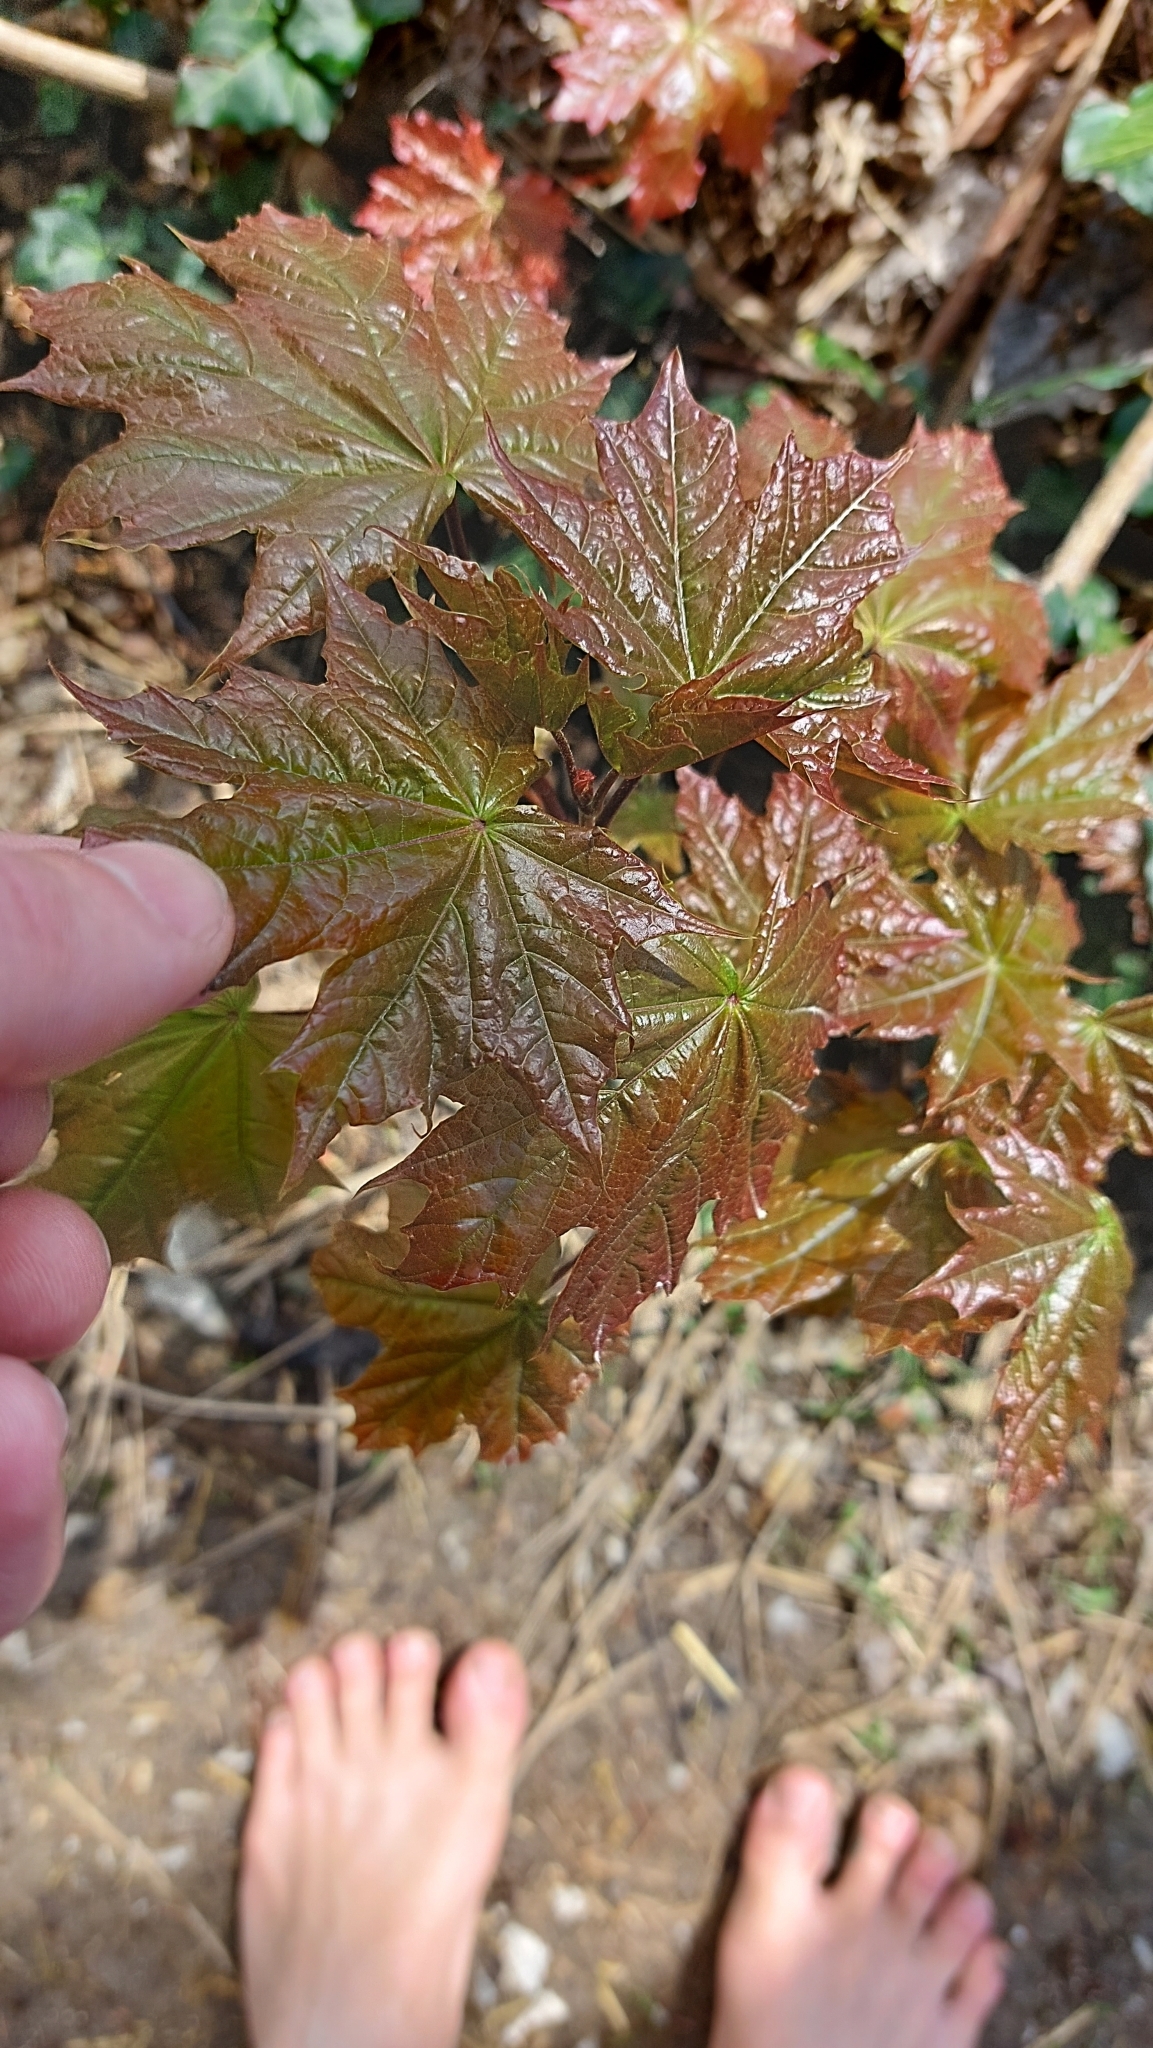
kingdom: Plantae
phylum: Tracheophyta
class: Magnoliopsida
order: Sapindales
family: Sapindaceae
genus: Acer
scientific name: Acer platanoides
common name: Norway maple
